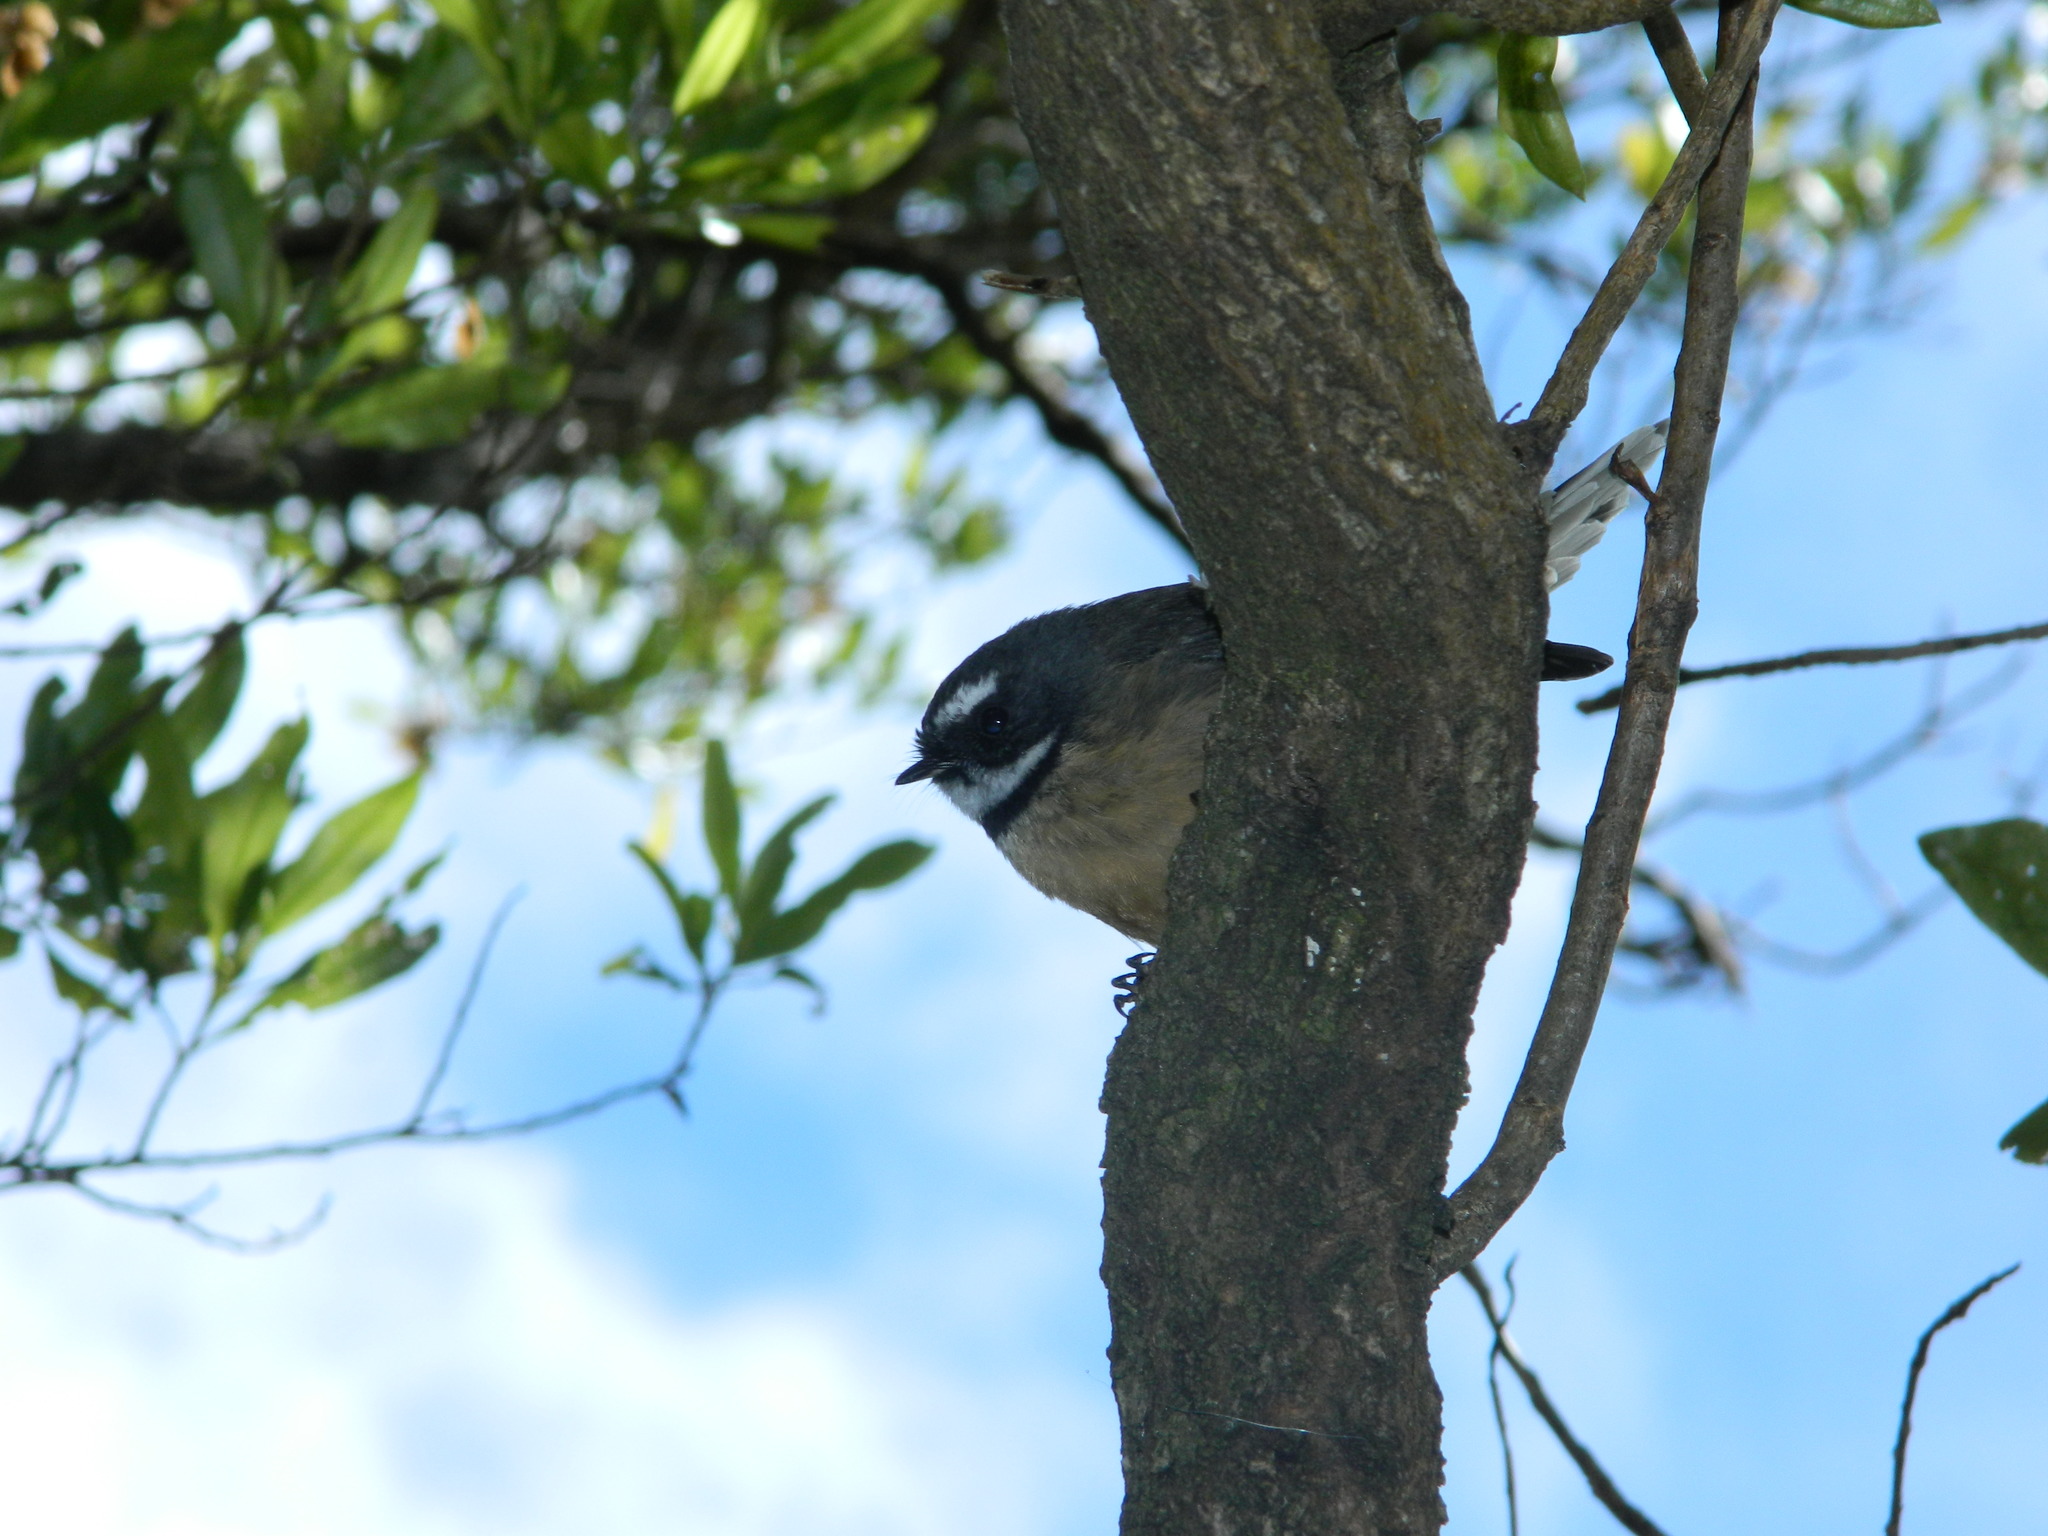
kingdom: Animalia
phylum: Chordata
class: Aves
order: Passeriformes
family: Rhipiduridae
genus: Rhipidura
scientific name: Rhipidura fuliginosa
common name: New zealand fantail
